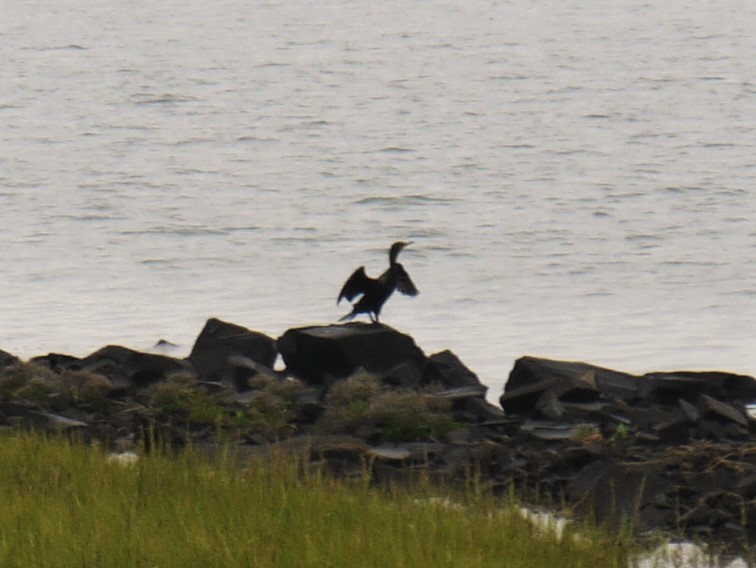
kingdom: Animalia
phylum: Chordata
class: Aves
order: Suliformes
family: Phalacrocoracidae
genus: Phalacrocorax
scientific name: Phalacrocorax auritus
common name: Double-crested cormorant
